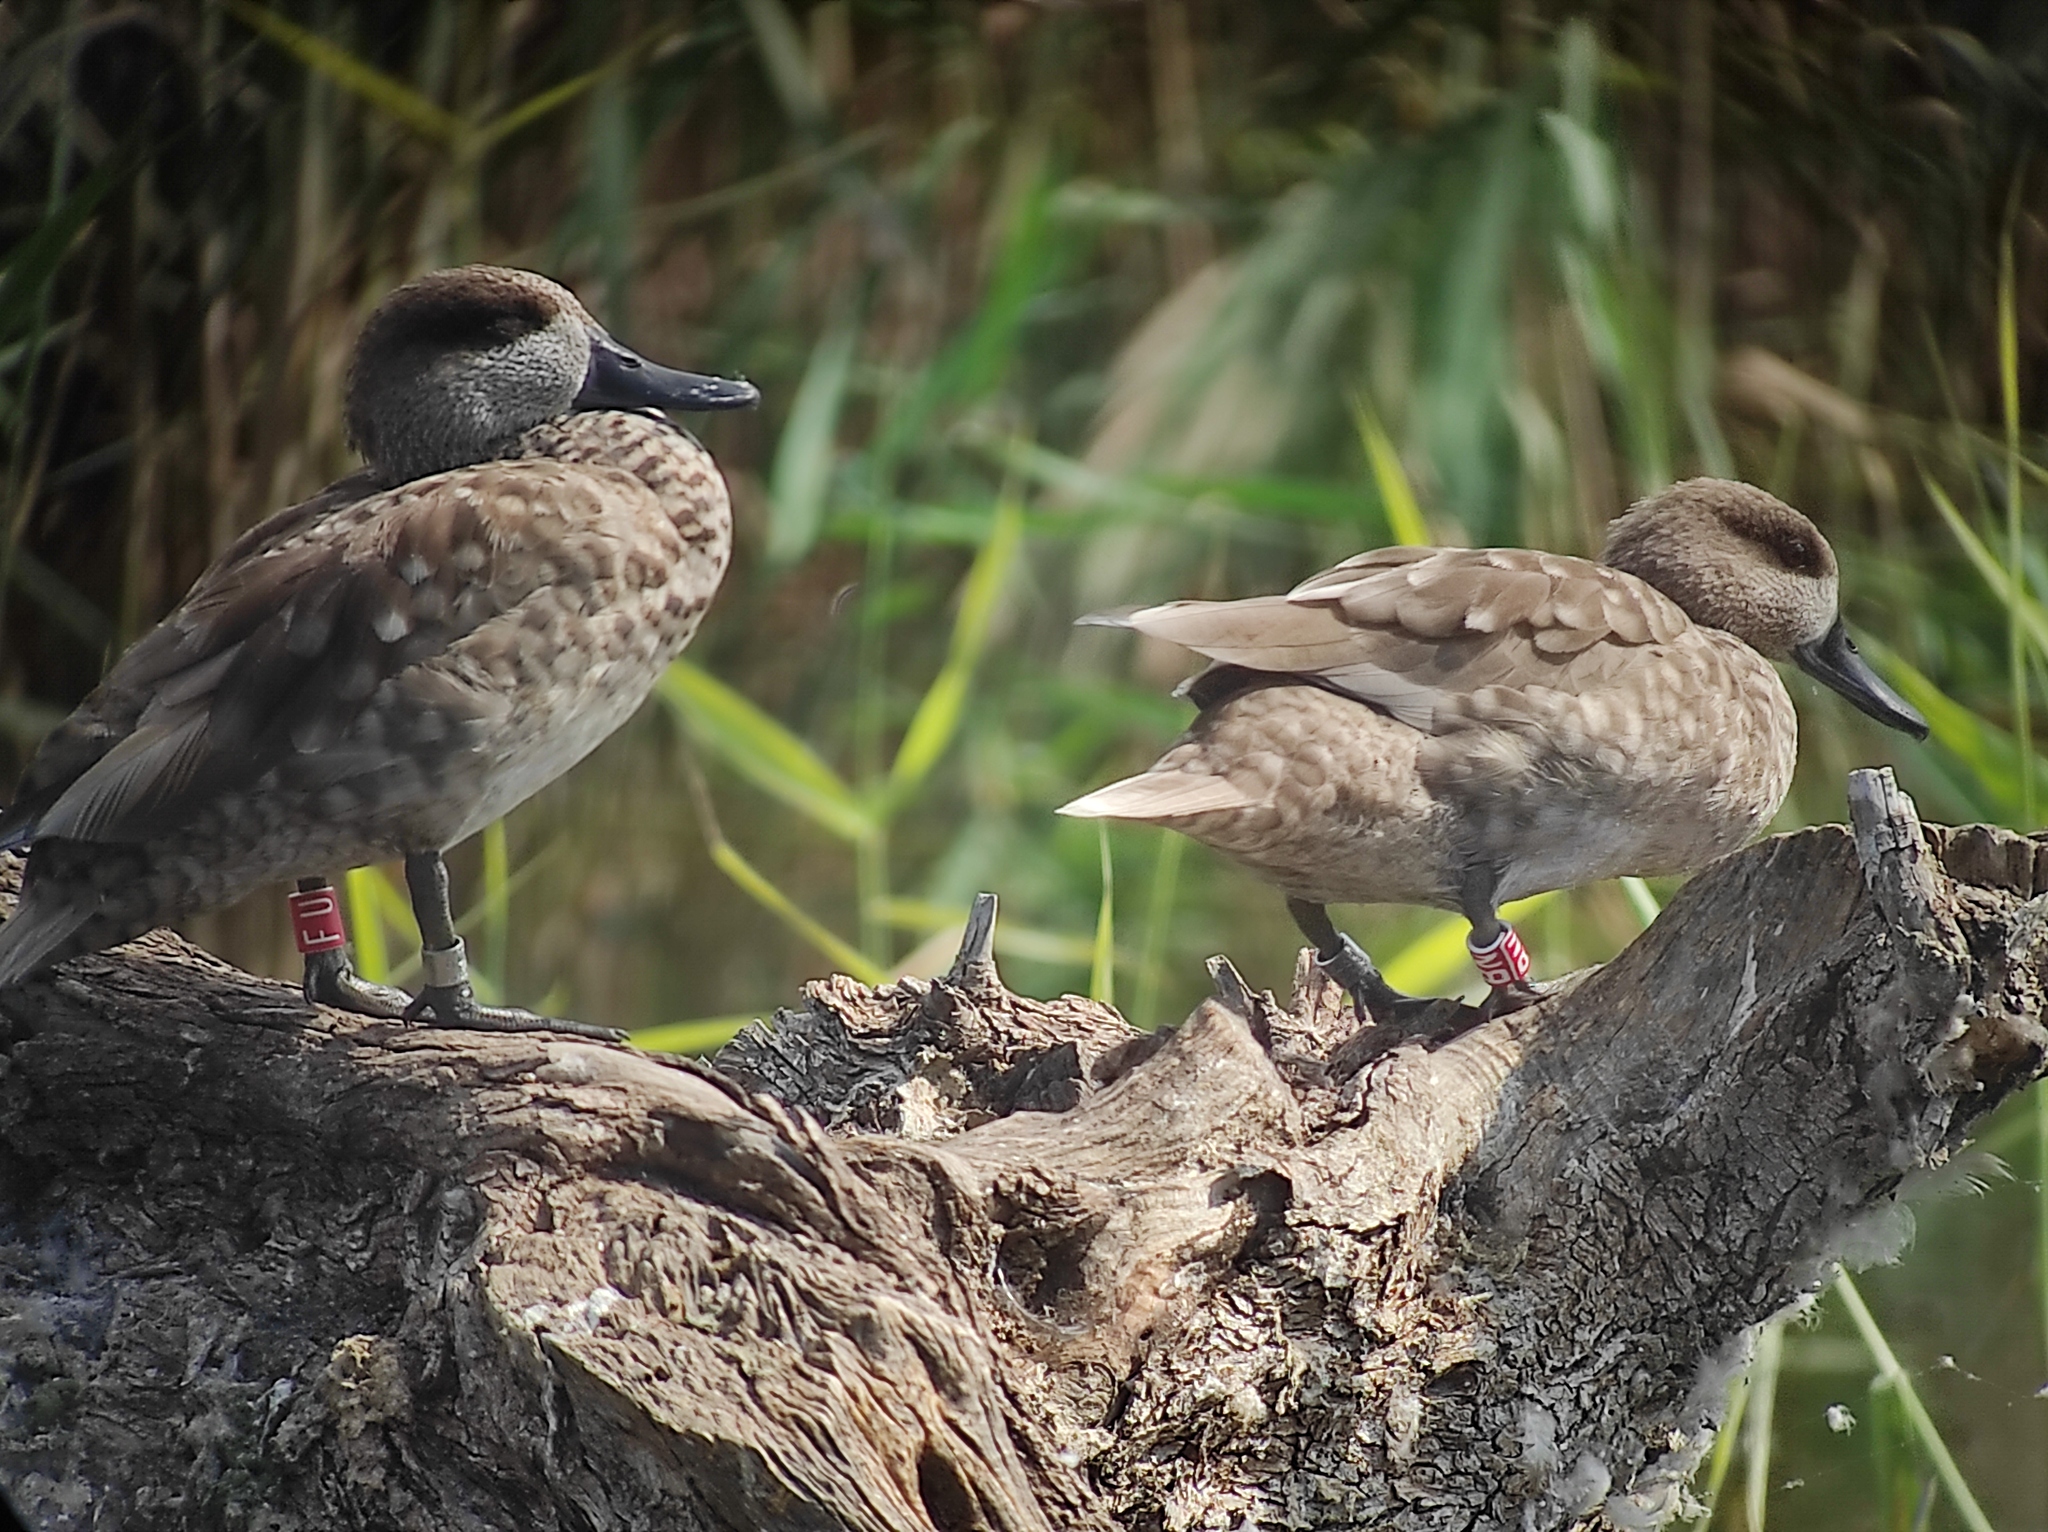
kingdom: Animalia
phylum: Chordata
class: Aves
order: Anseriformes
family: Anatidae
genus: Marmaronetta
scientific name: Marmaronetta angustirostris
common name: Marbled duck
